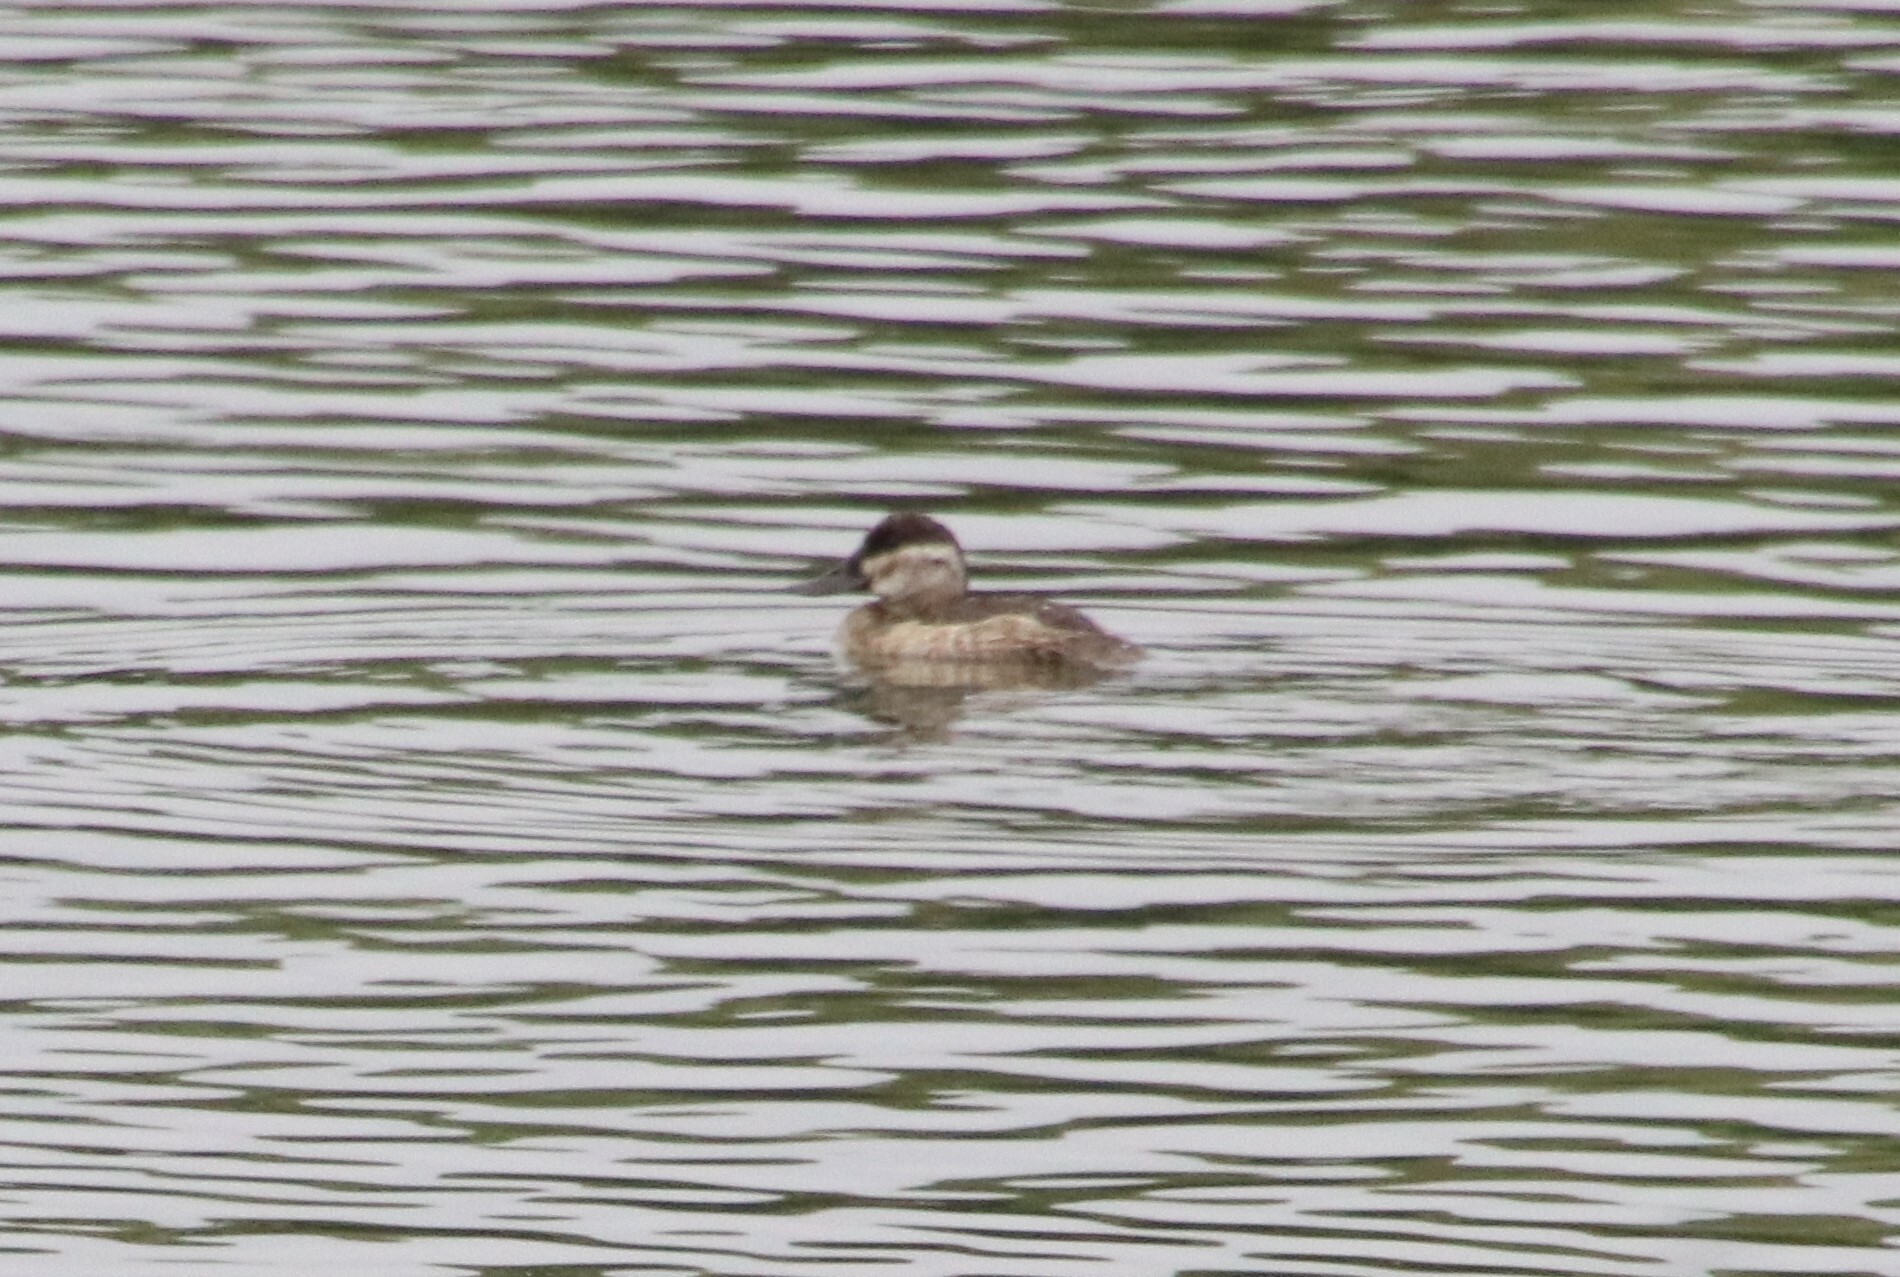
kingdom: Animalia
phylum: Chordata
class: Aves
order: Anseriformes
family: Anatidae
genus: Oxyura
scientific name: Oxyura jamaicensis
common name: Ruddy duck
